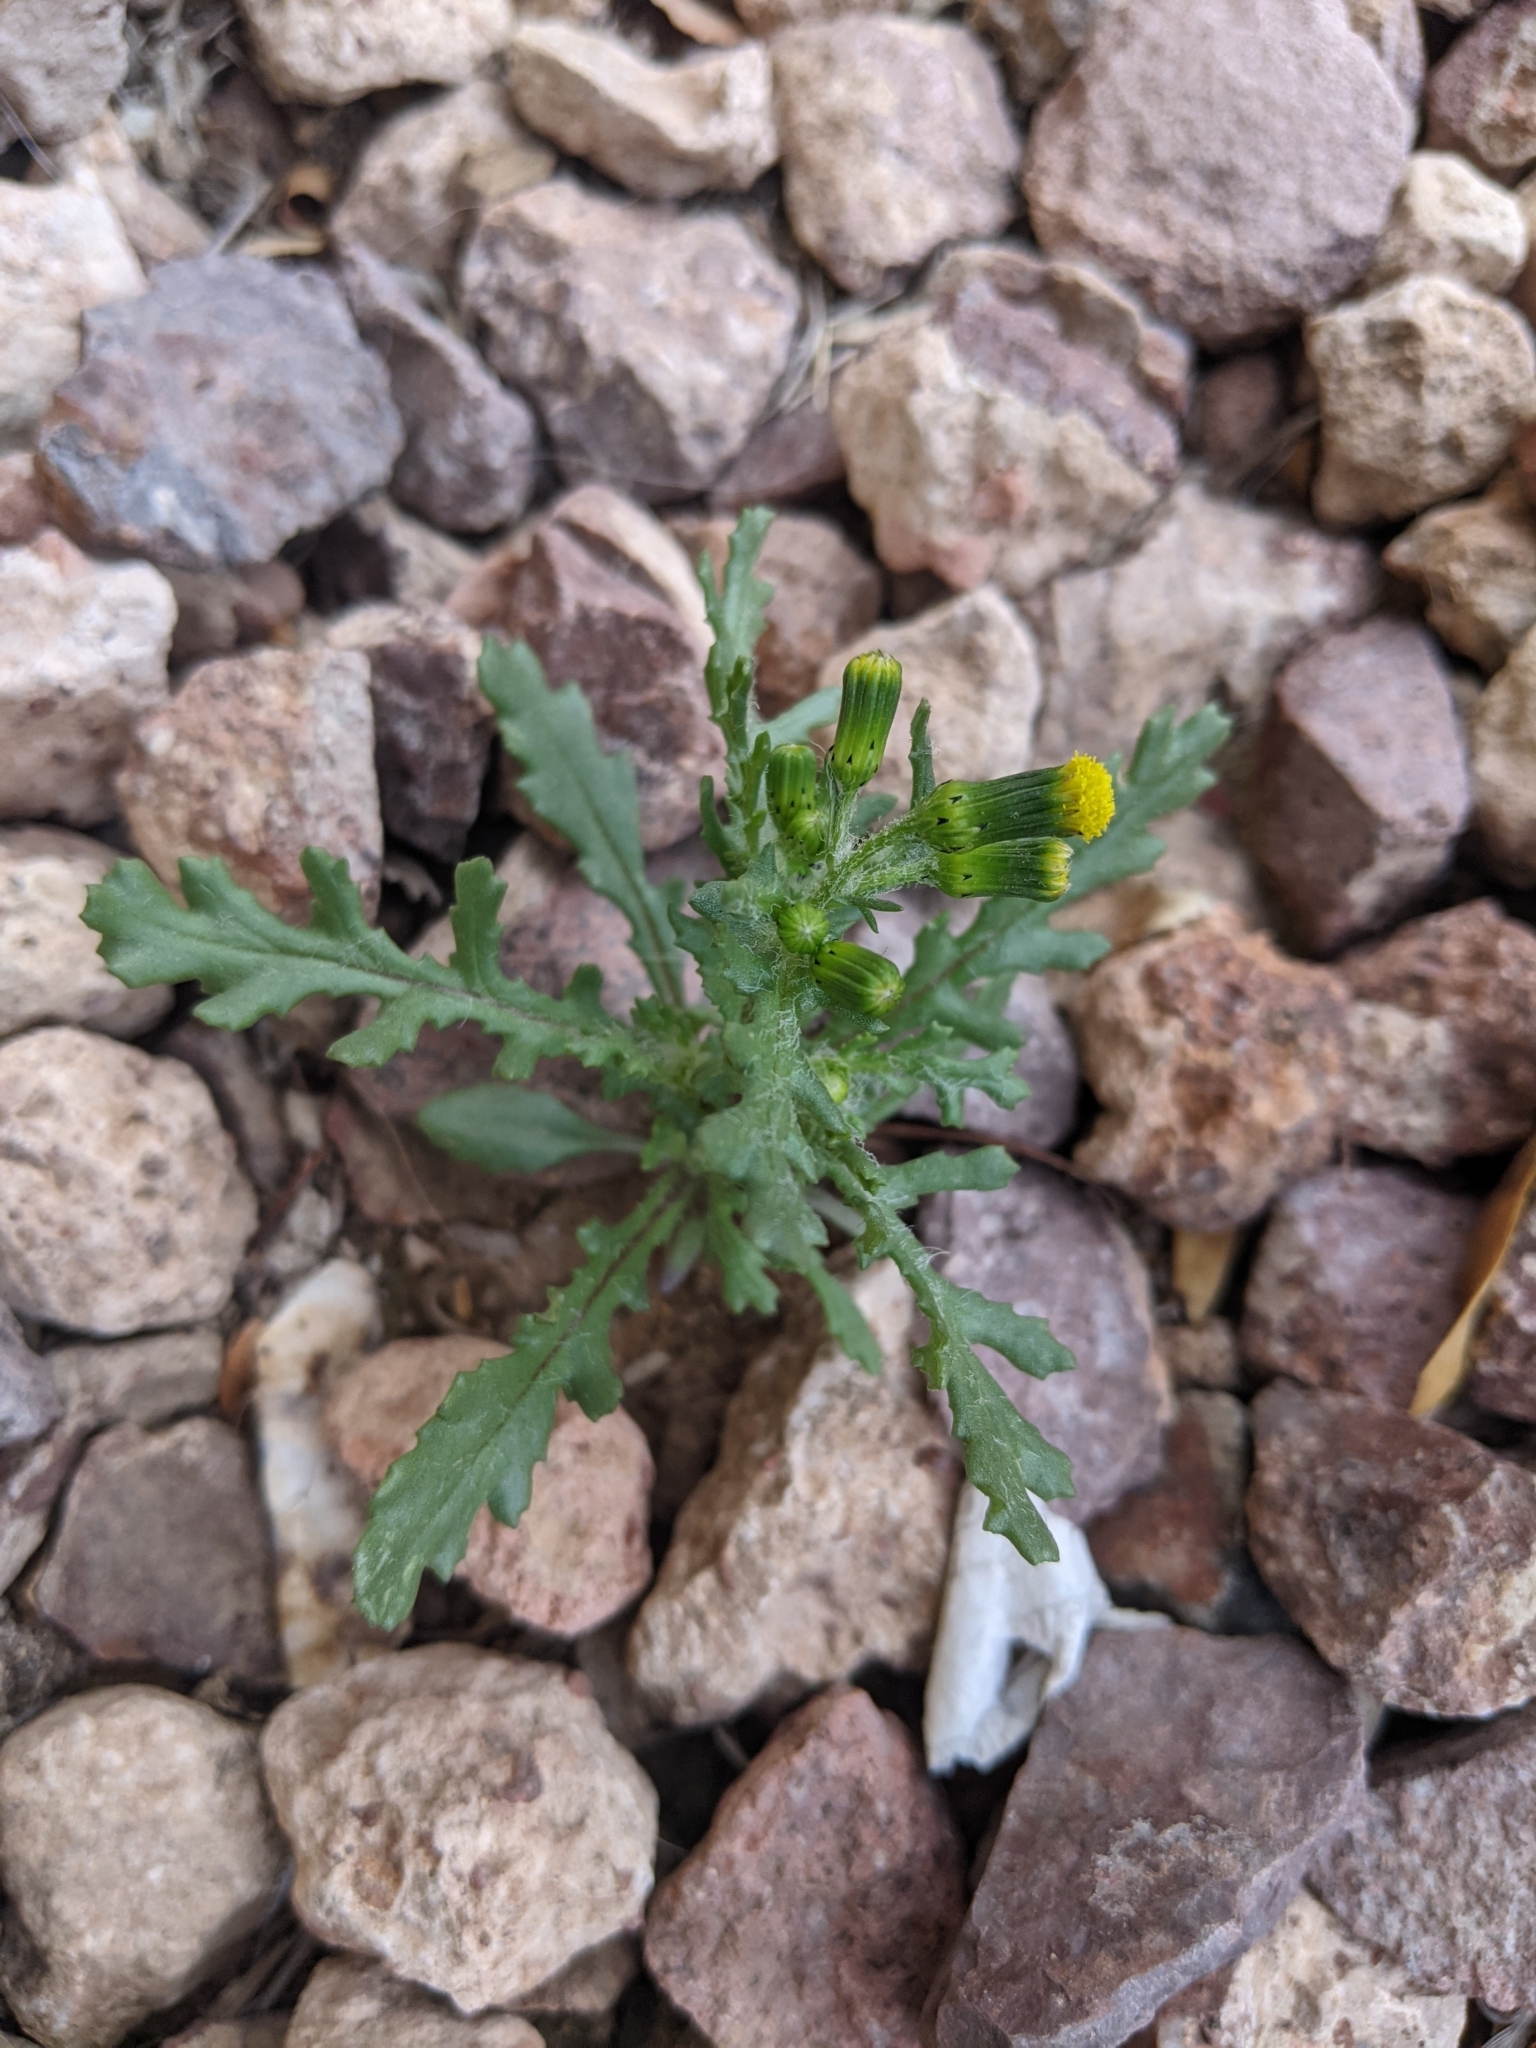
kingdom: Plantae
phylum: Tracheophyta
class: Magnoliopsida
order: Asterales
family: Asteraceae
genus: Senecio
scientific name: Senecio vulgaris
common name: Old-man-in-the-spring
